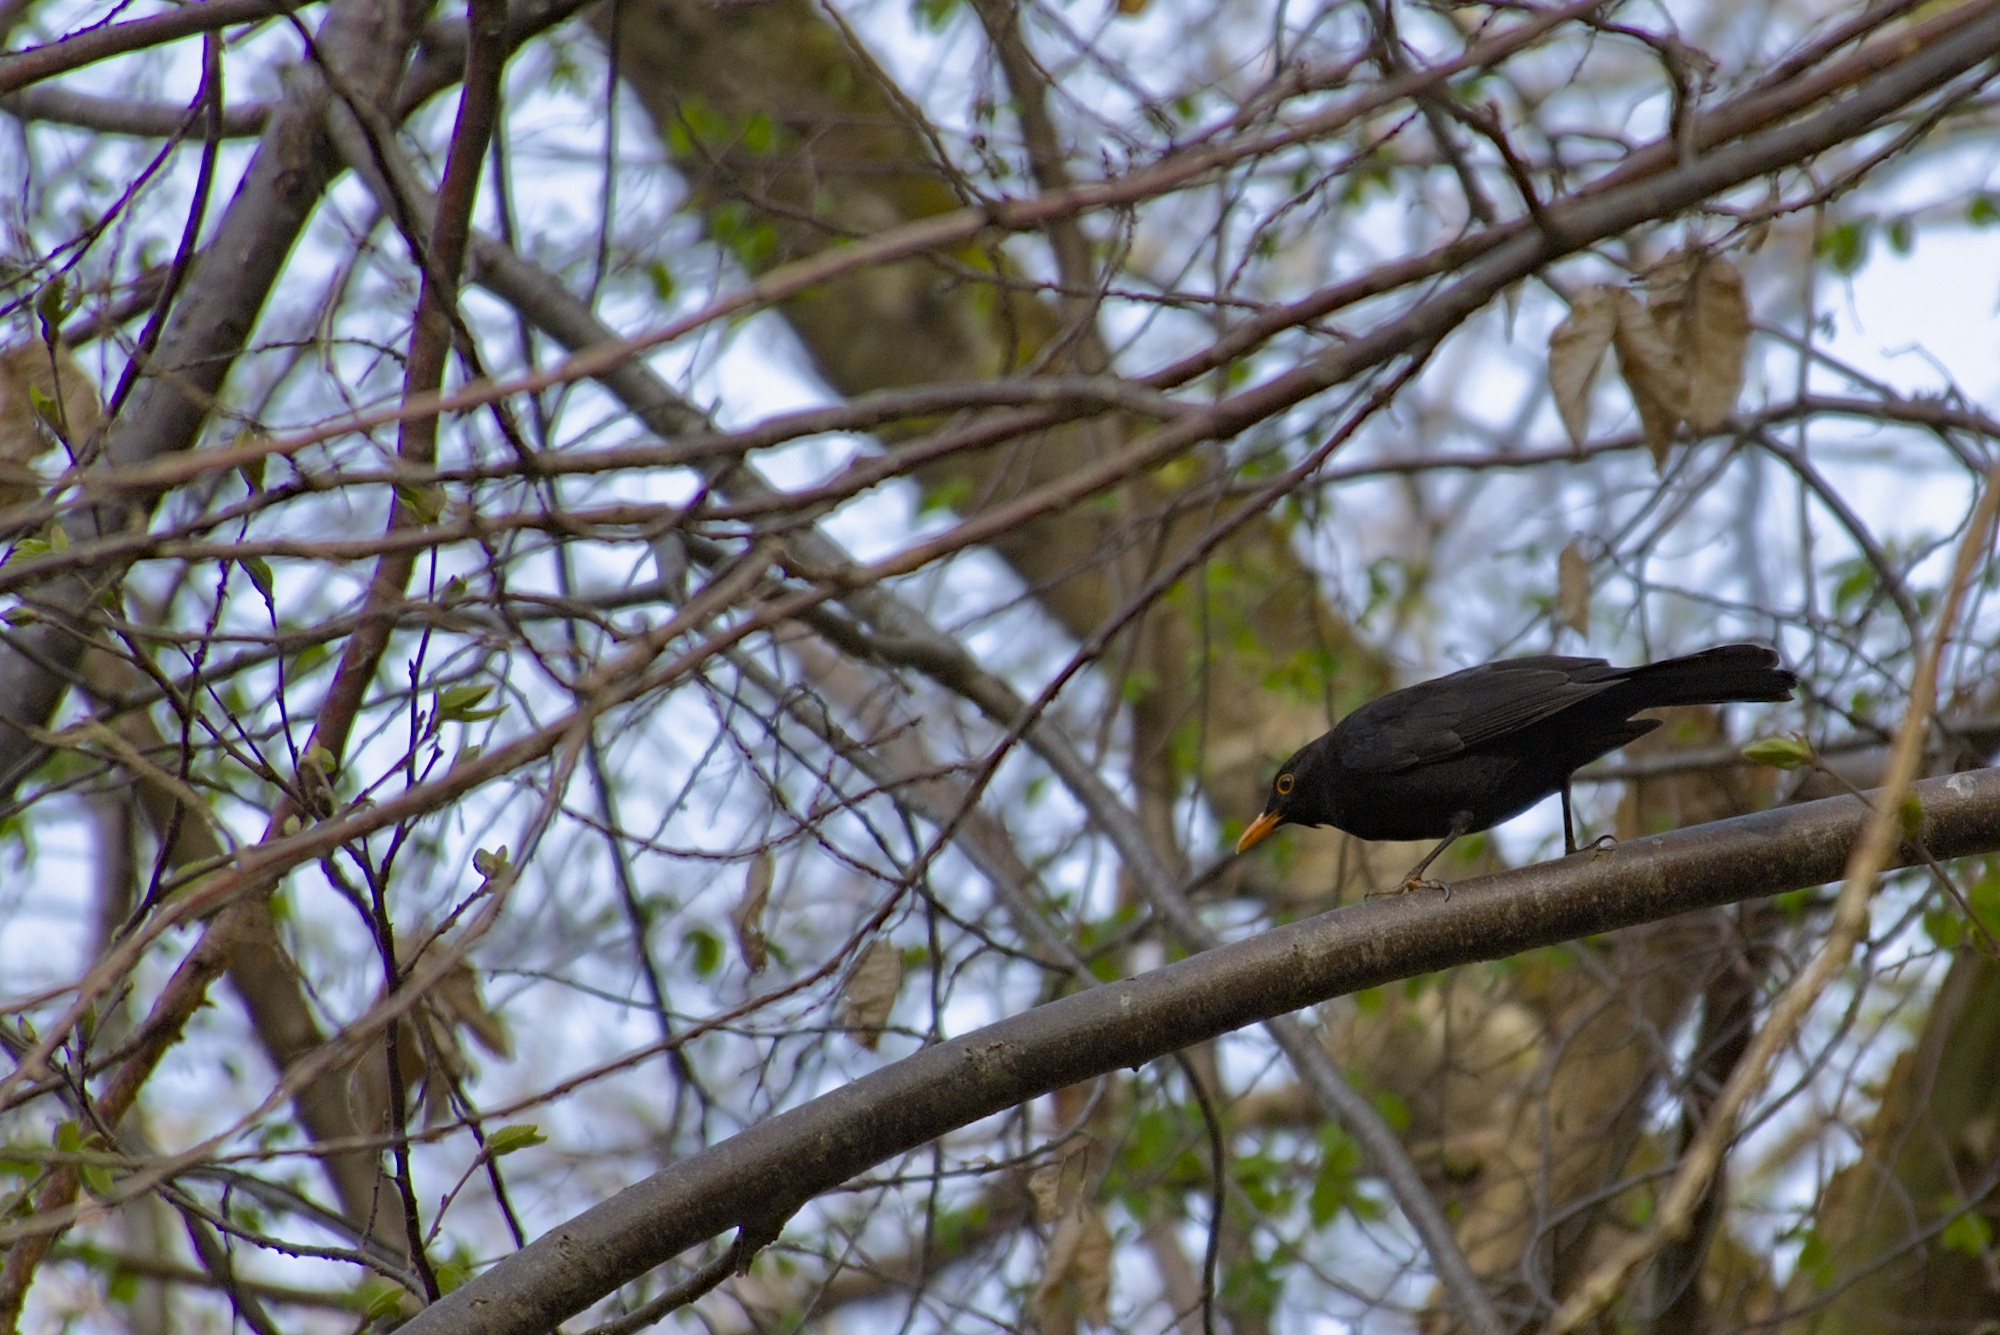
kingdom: Animalia
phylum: Chordata
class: Aves
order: Passeriformes
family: Turdidae
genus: Turdus
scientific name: Turdus merula
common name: Common blackbird
